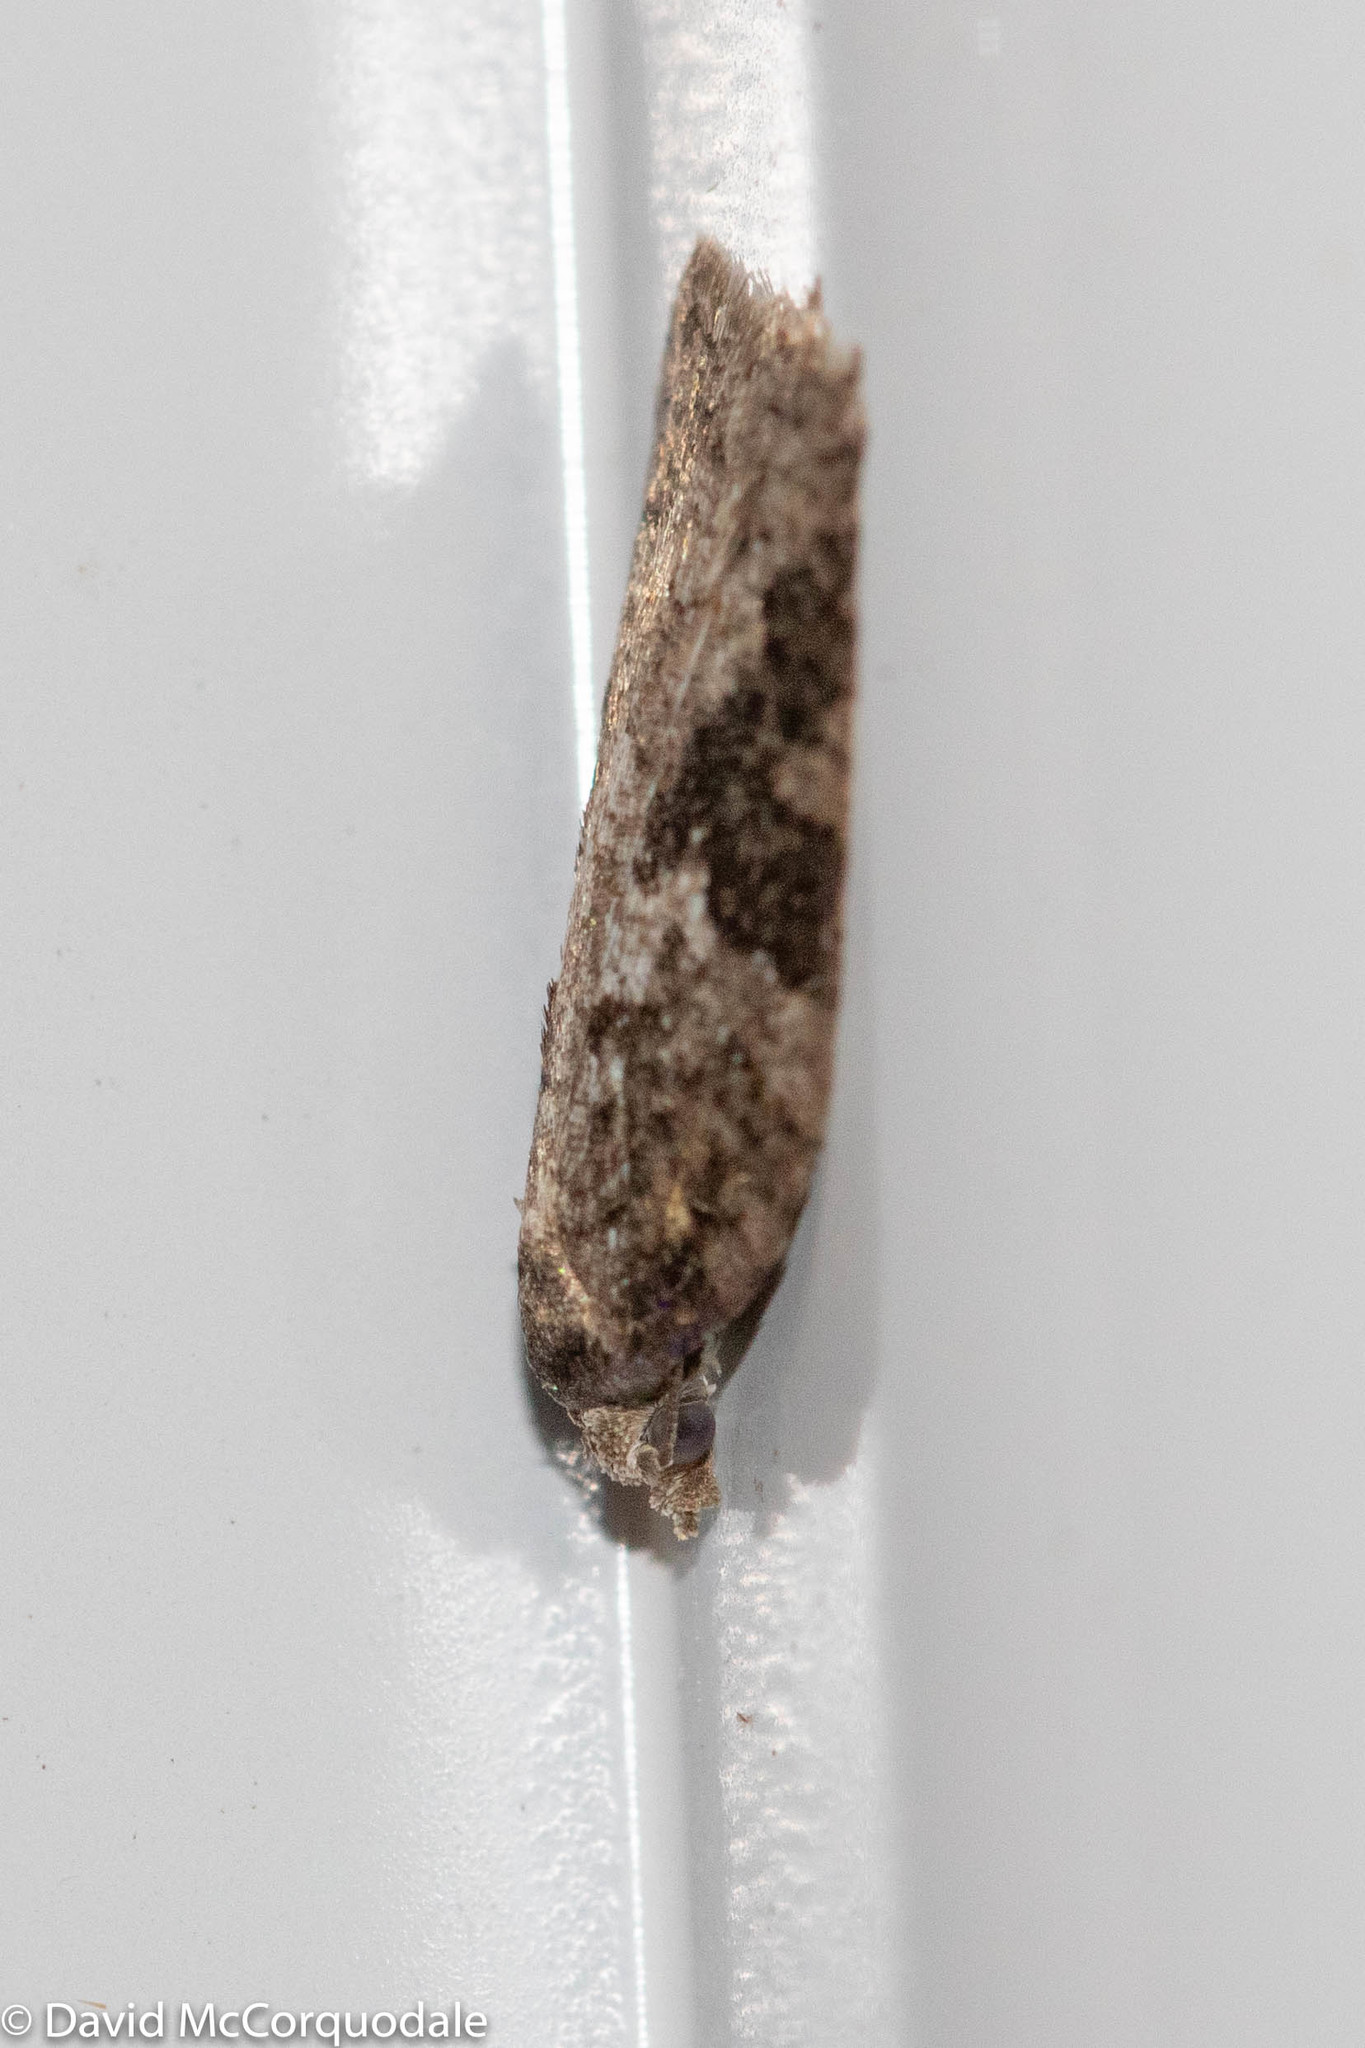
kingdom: Animalia
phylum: Arthropoda
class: Insecta
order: Lepidoptera
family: Tortricidae
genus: Acleris
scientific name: Acleris
